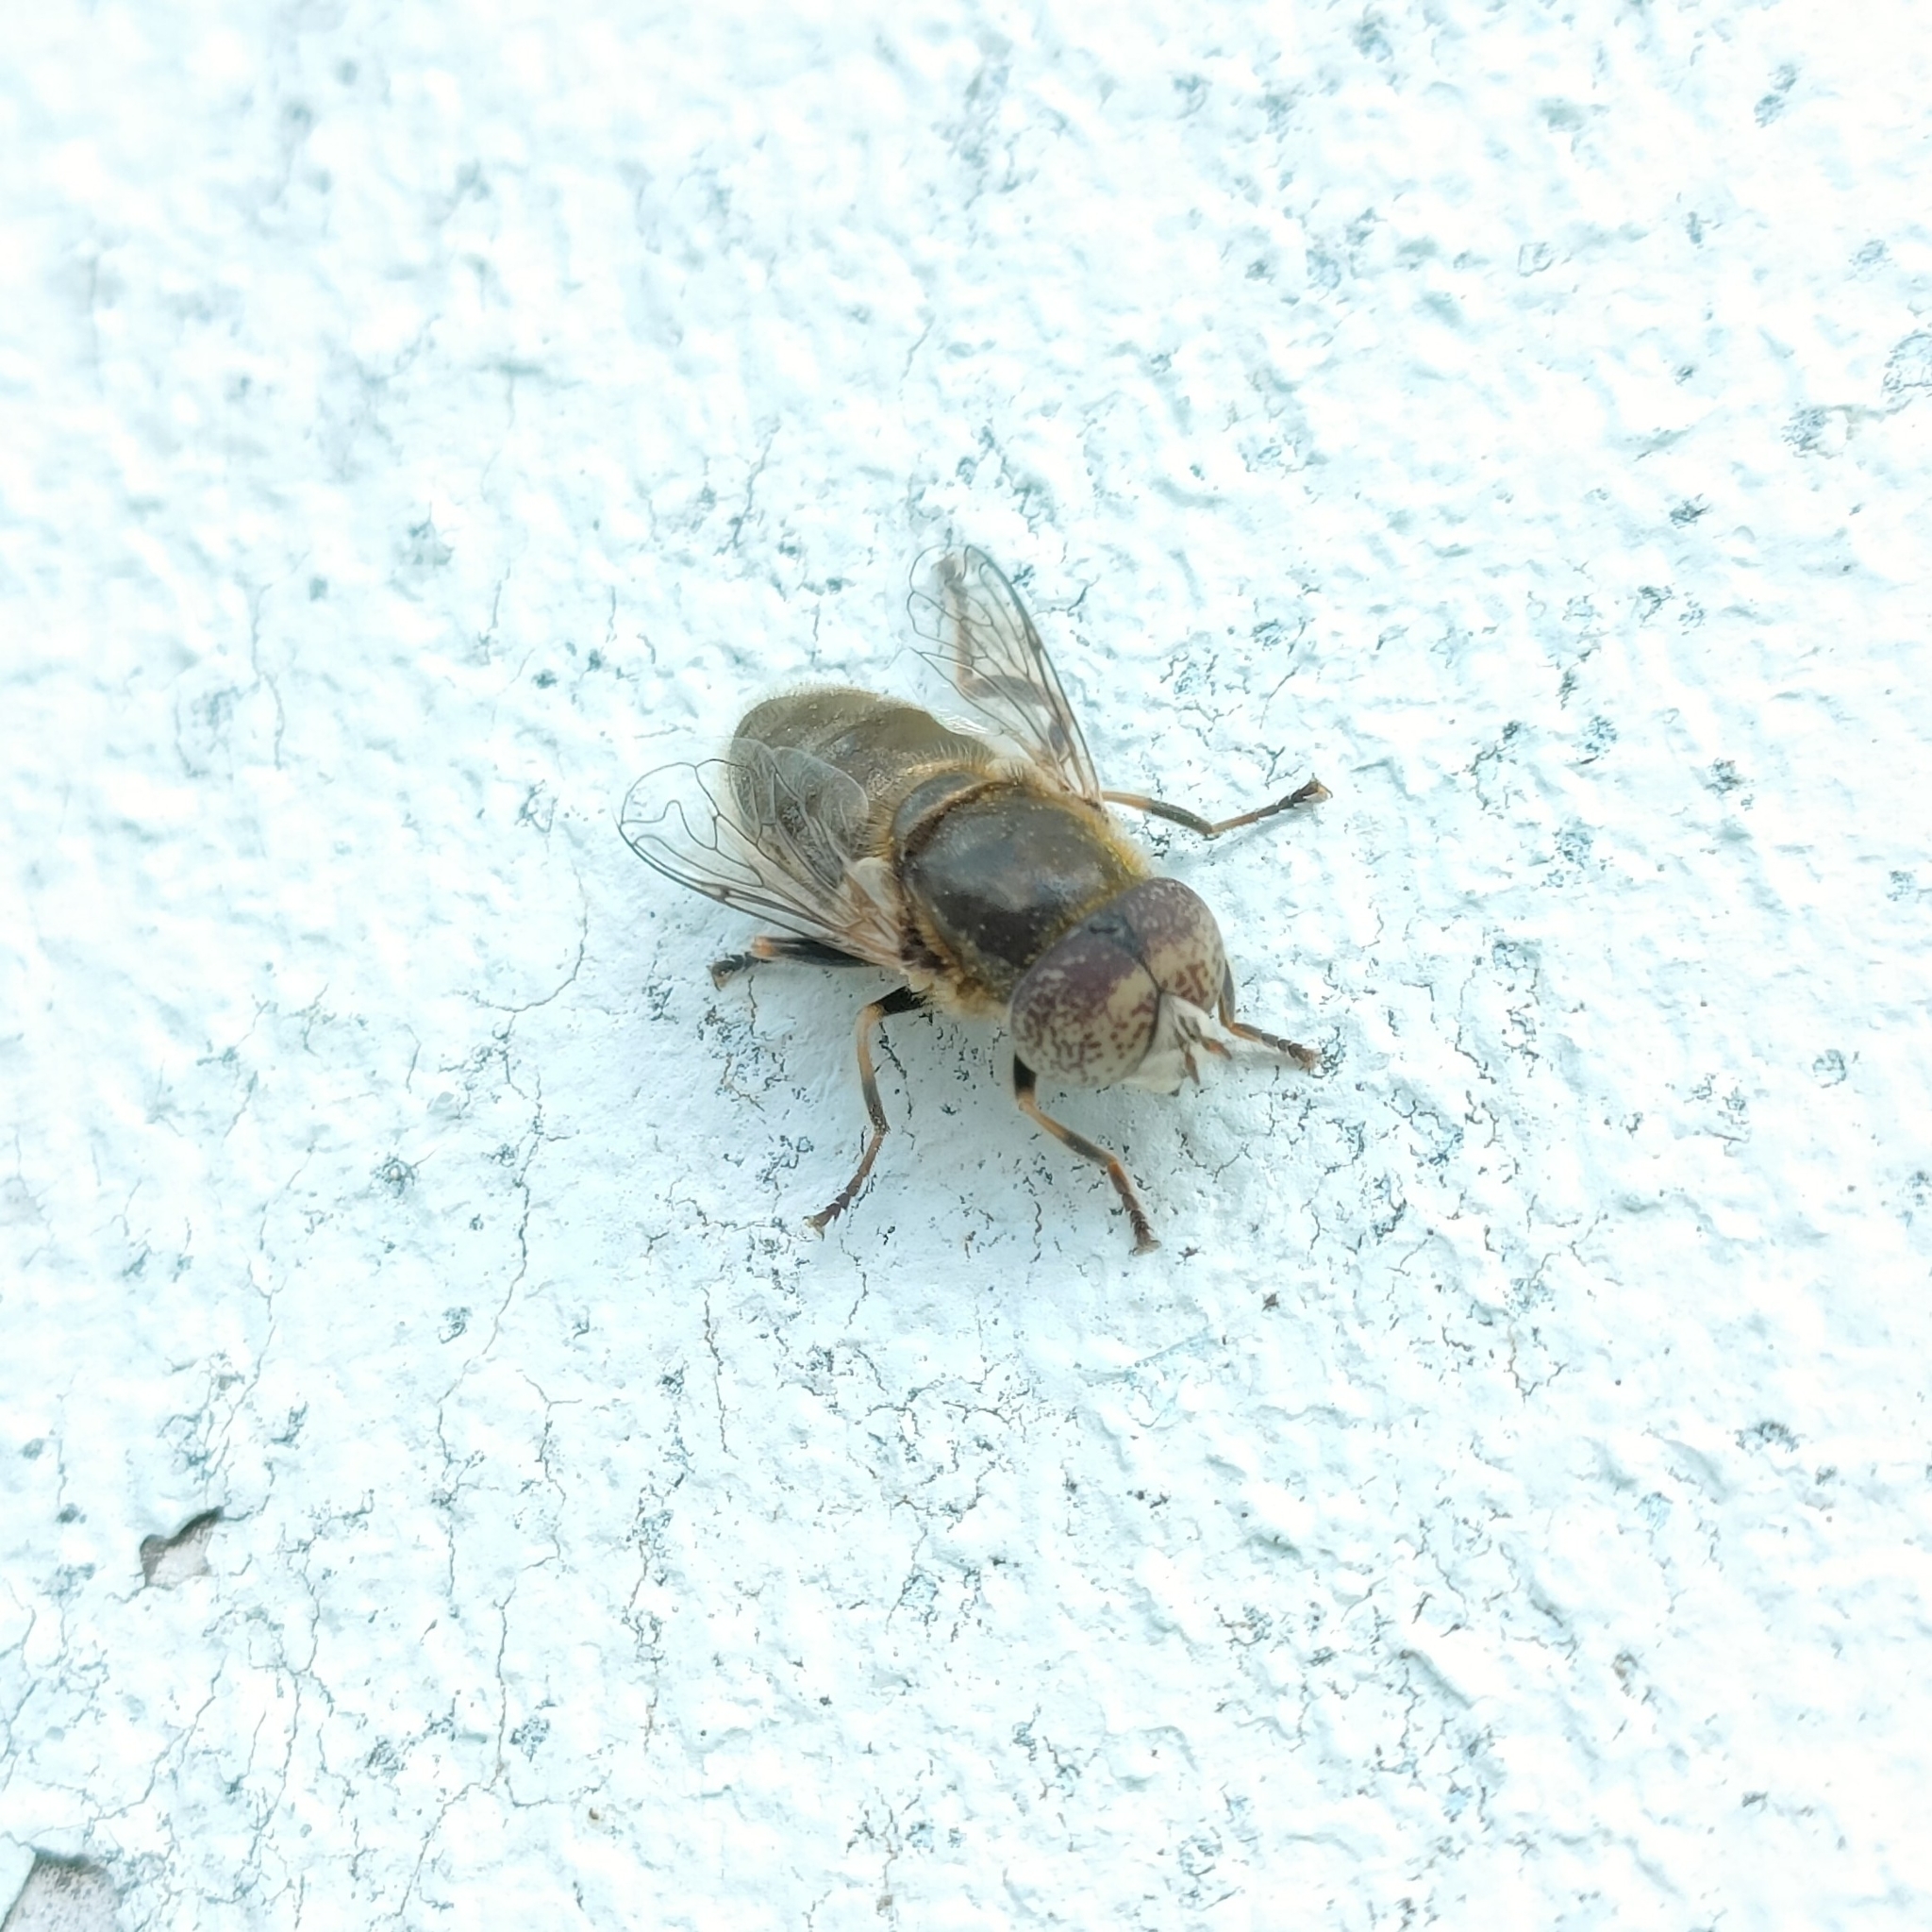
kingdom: Animalia
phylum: Arthropoda
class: Insecta
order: Diptera
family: Syrphidae
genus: Eristalinus
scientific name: Eristalinus aeneus
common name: Syrphid fly
